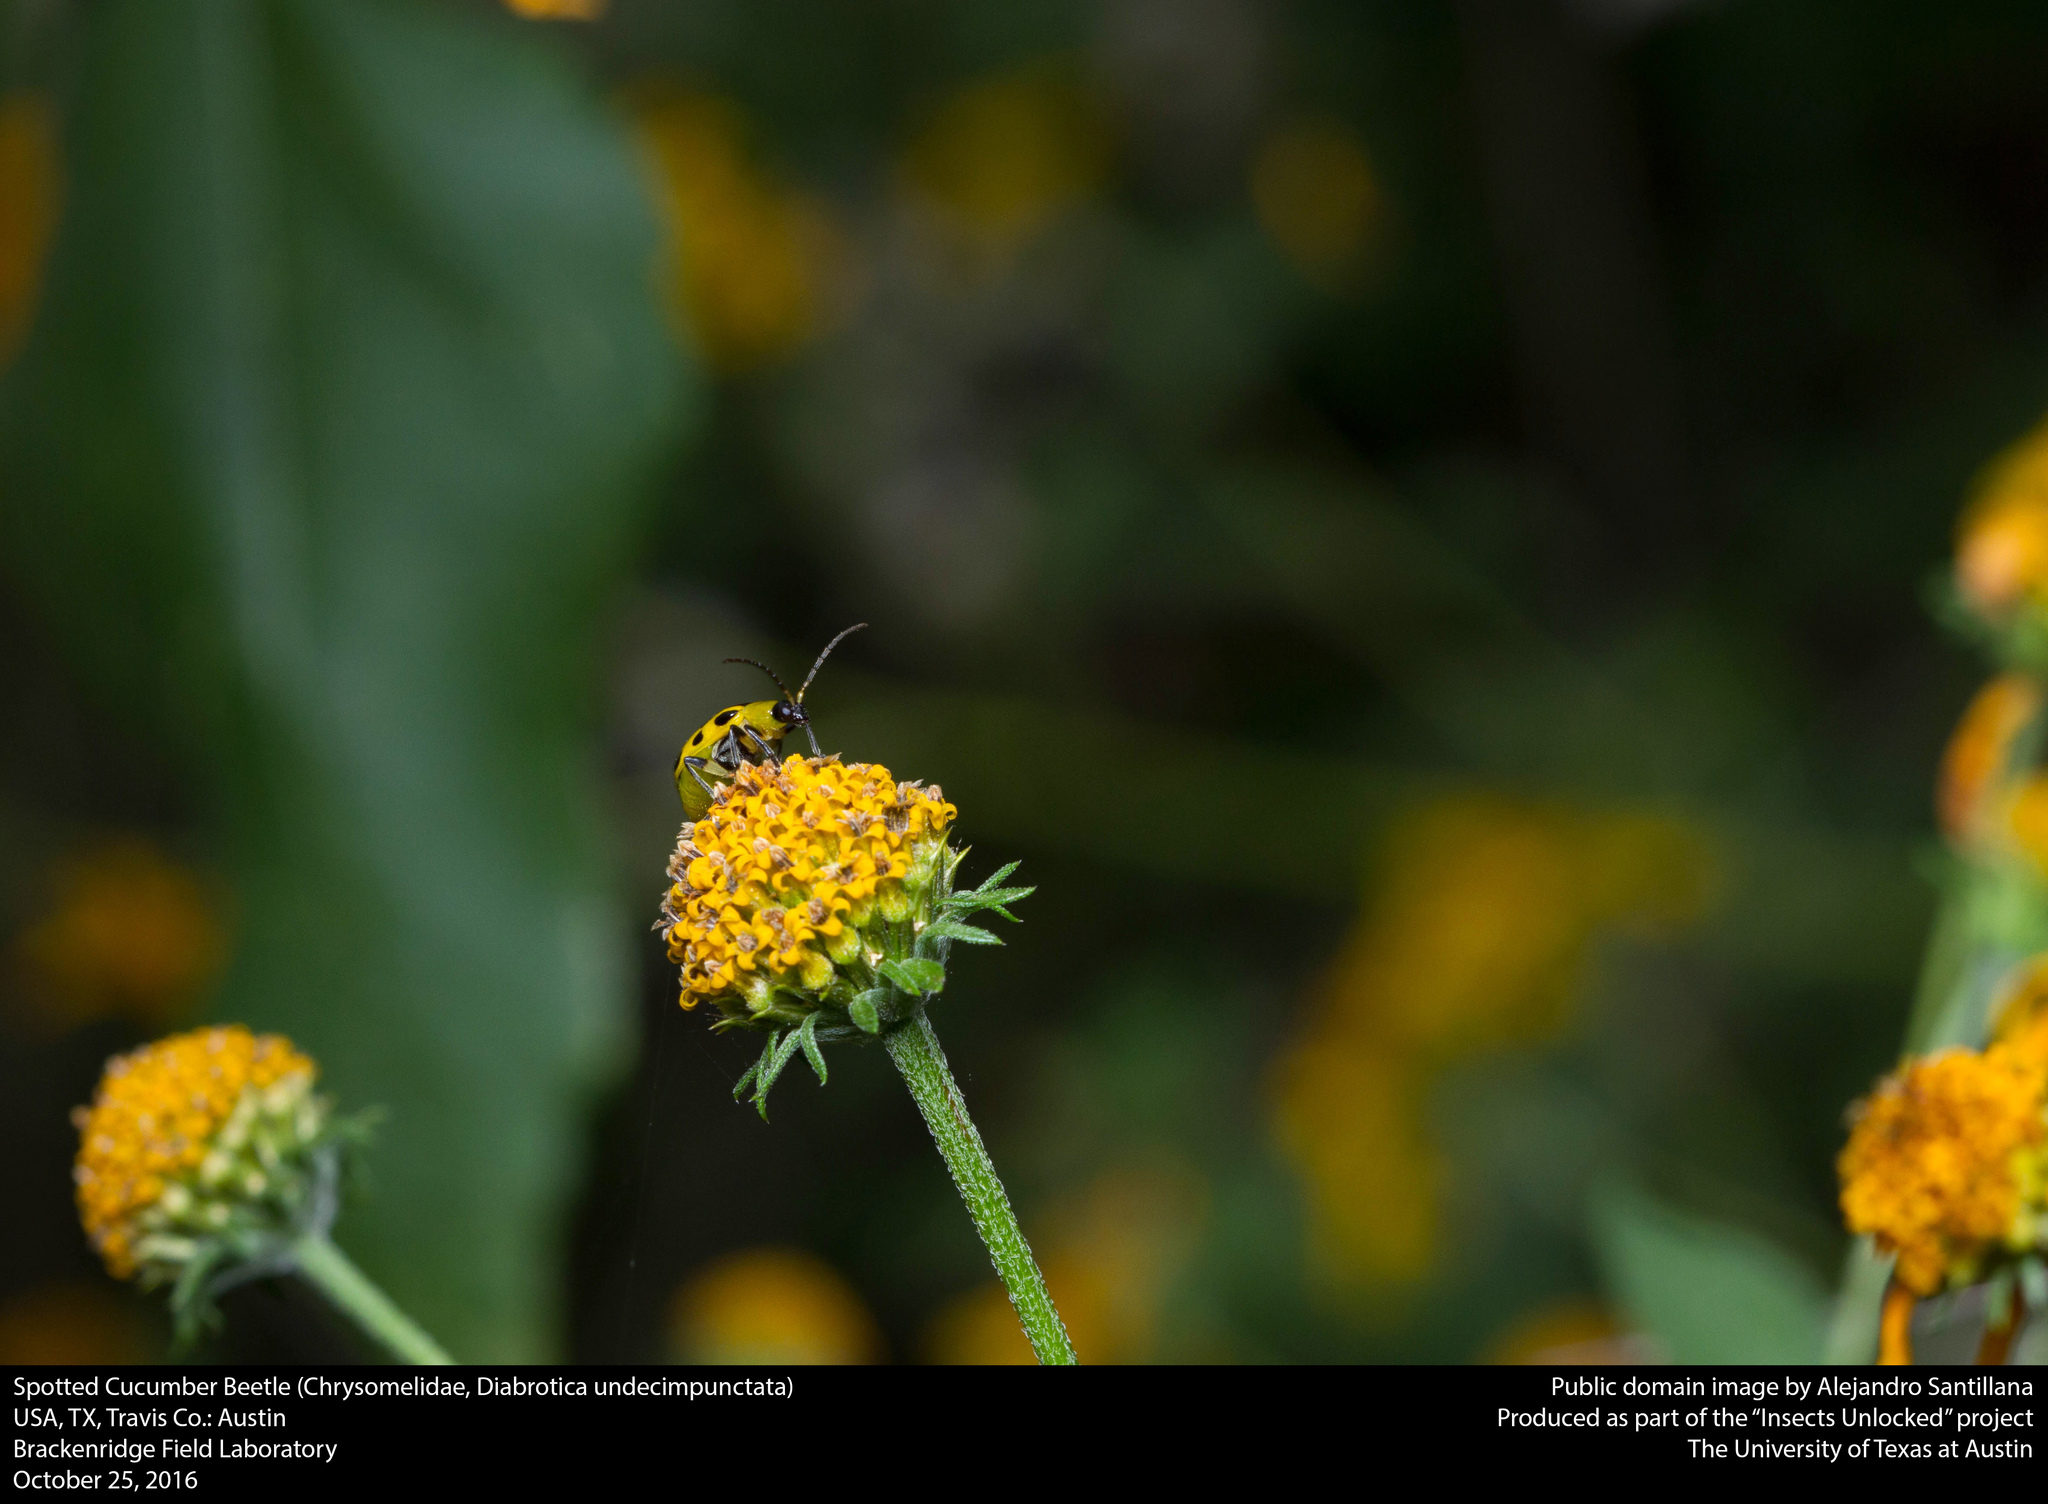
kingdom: Animalia
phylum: Arthropoda
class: Insecta
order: Coleoptera
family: Chrysomelidae
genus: Diabrotica
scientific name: Diabrotica undecimpunctata
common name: Spotted cucumber beetle
